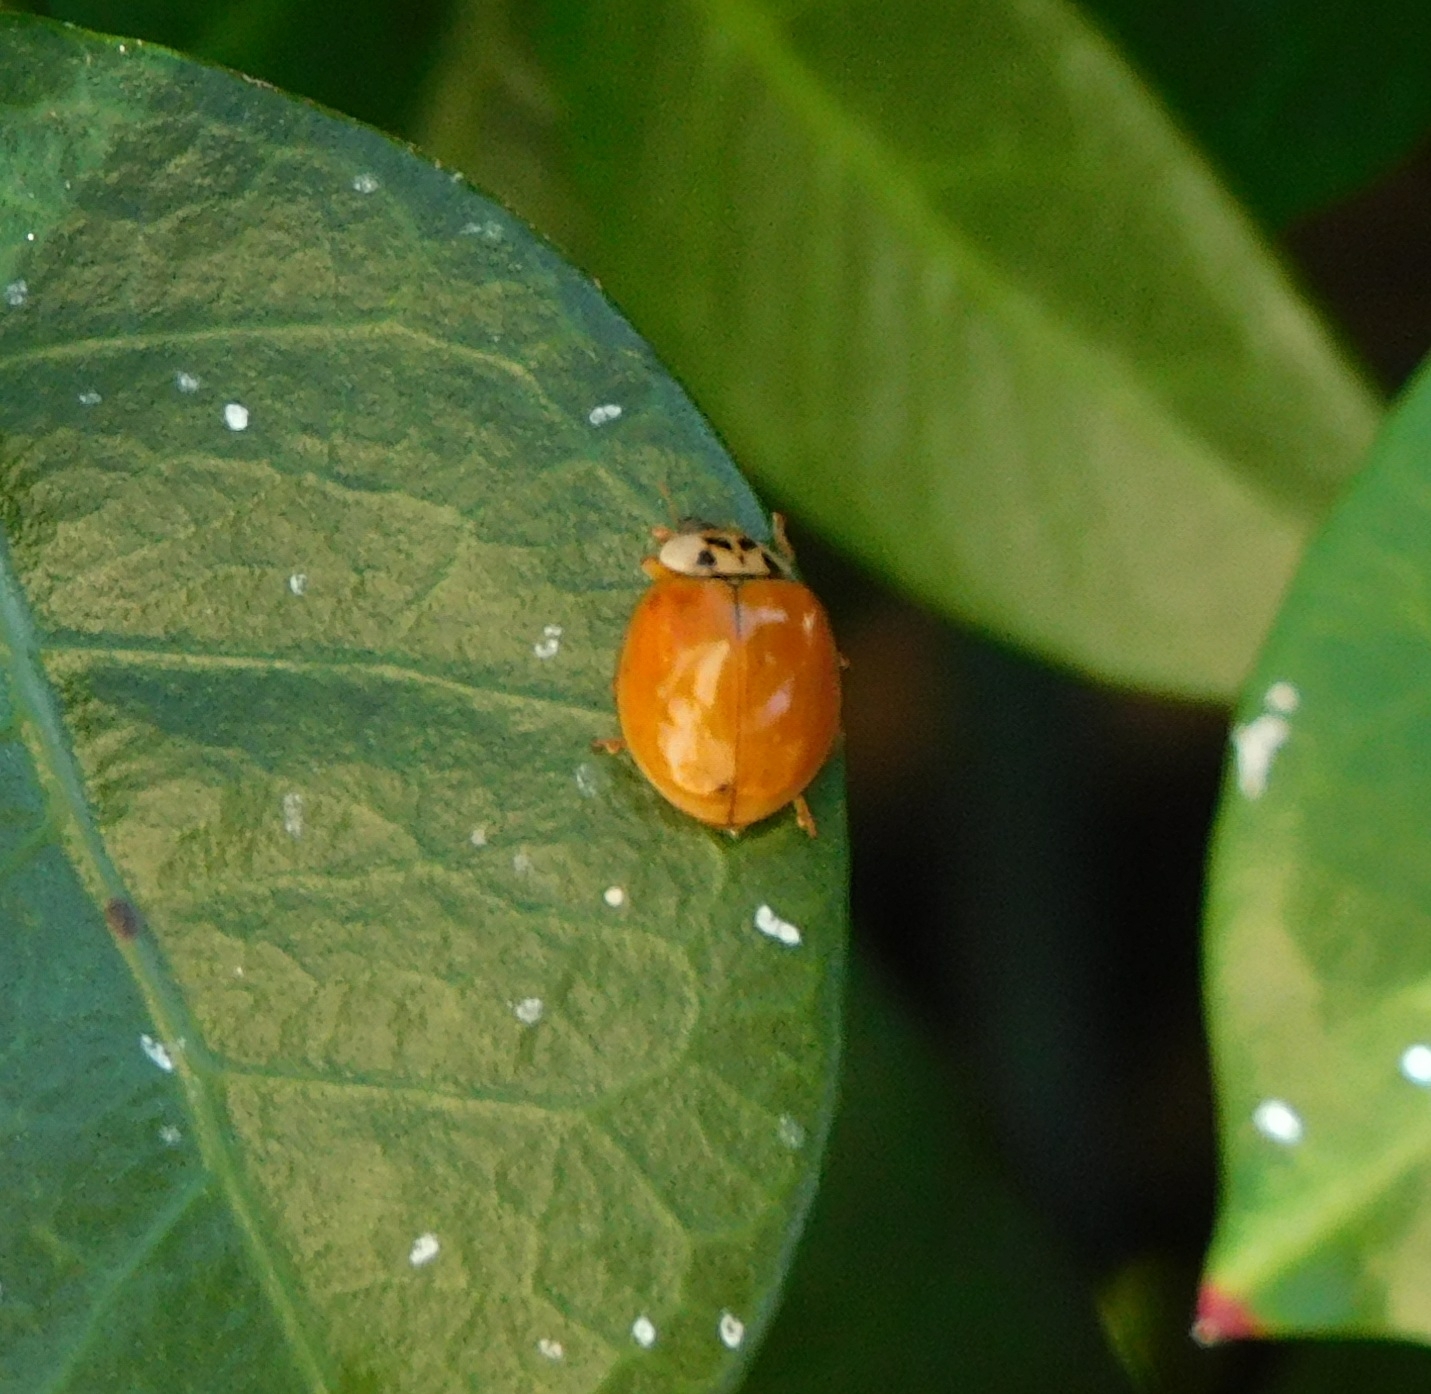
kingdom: Animalia
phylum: Arthropoda
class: Insecta
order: Coleoptera
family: Coccinellidae
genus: Harmonia
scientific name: Harmonia axyridis
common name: Harlequin ladybird
